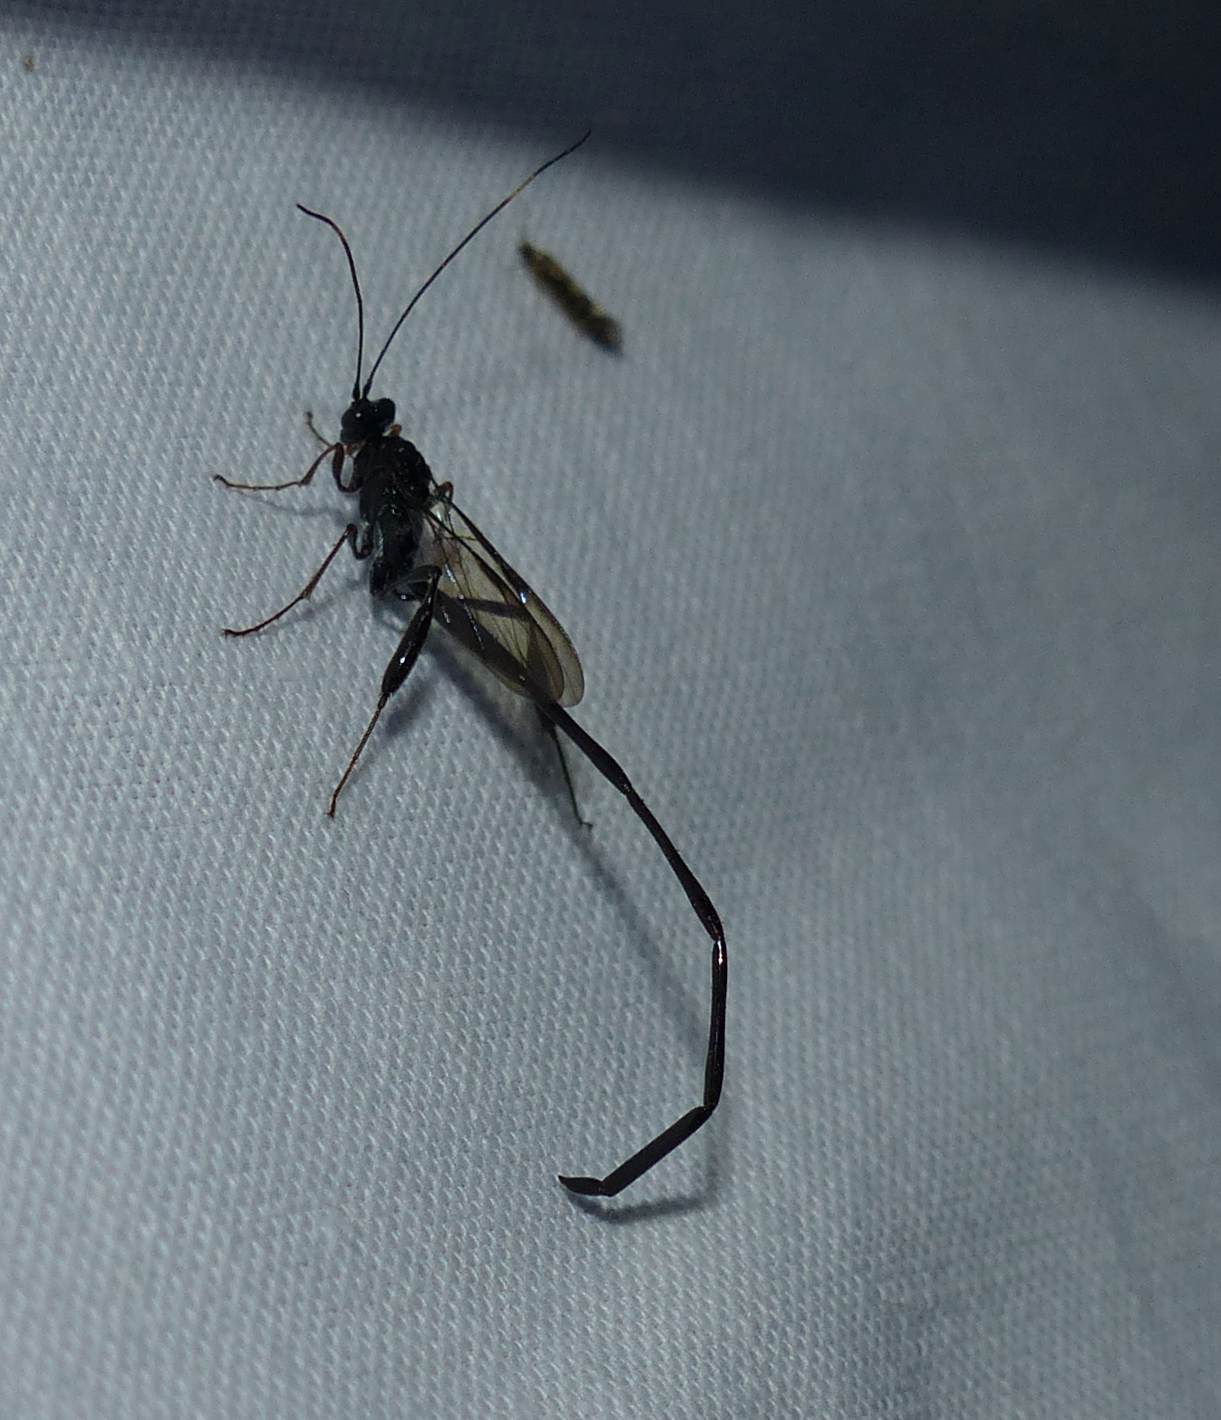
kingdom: Animalia
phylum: Arthropoda
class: Insecta
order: Hymenoptera
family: Pelecinidae
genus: Pelecinus
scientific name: Pelecinus polyturator
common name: American pelecinid wasp
